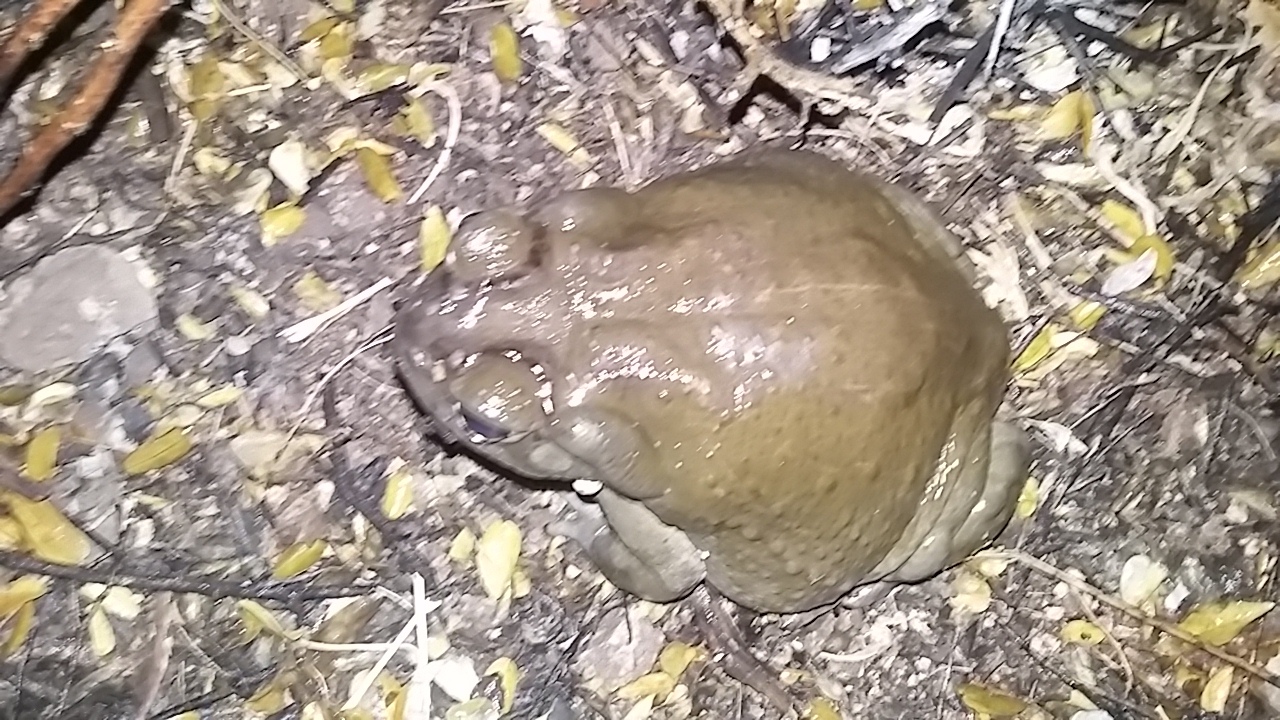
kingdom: Animalia
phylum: Chordata
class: Amphibia
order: Anura
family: Bufonidae
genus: Incilius
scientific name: Incilius alvarius
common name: Sonoran desert toad
